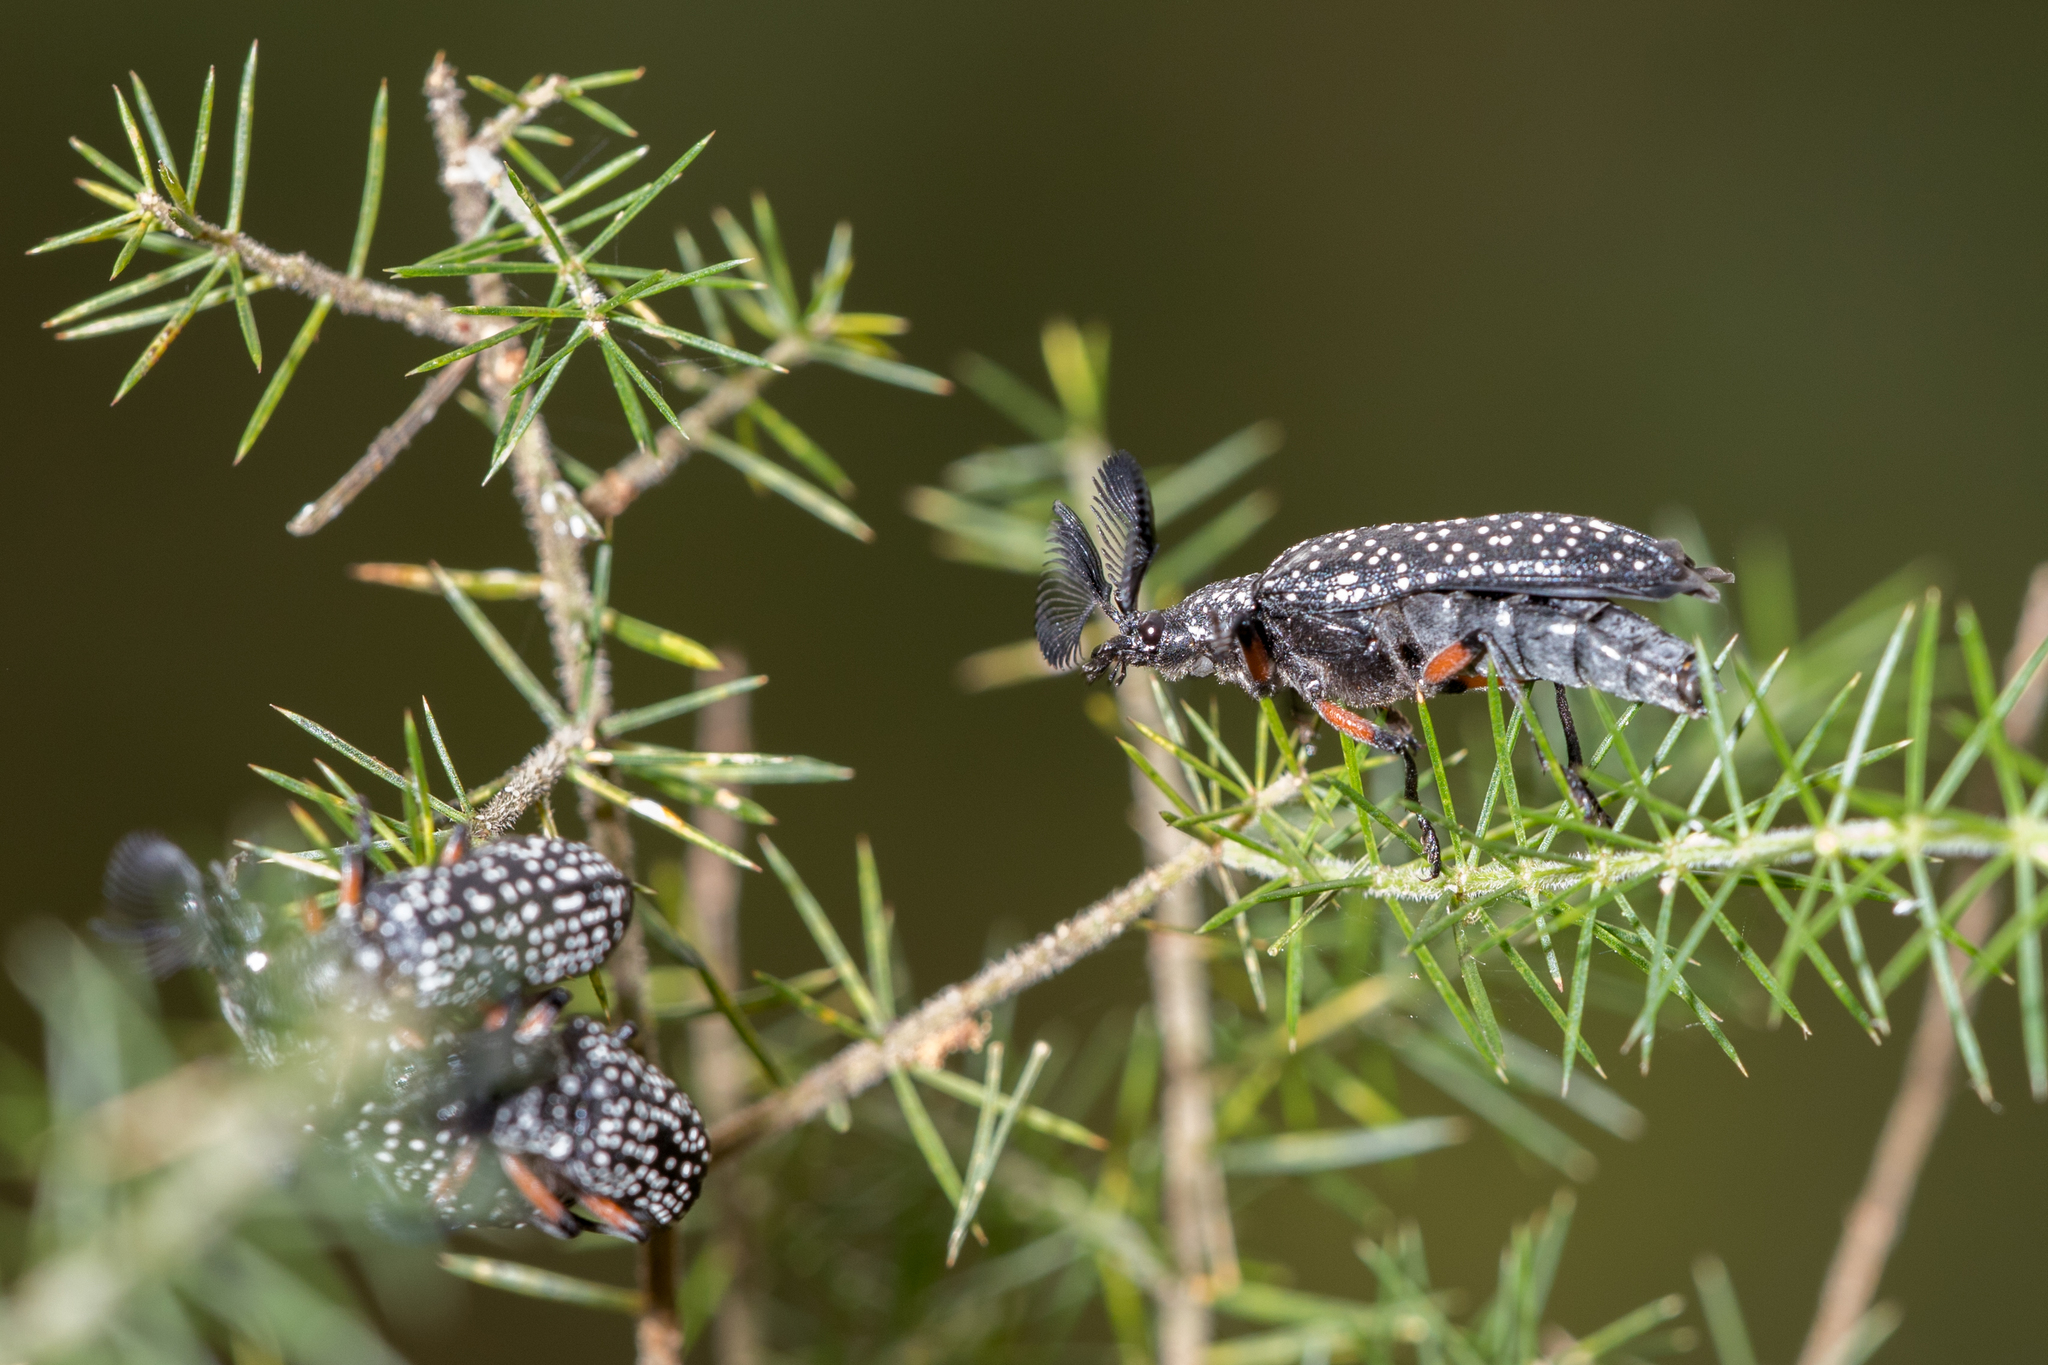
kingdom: Animalia
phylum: Arthropoda
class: Insecta
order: Coleoptera
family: Rhipiceridae
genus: Rhipicera
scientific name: Rhipicera femorata
